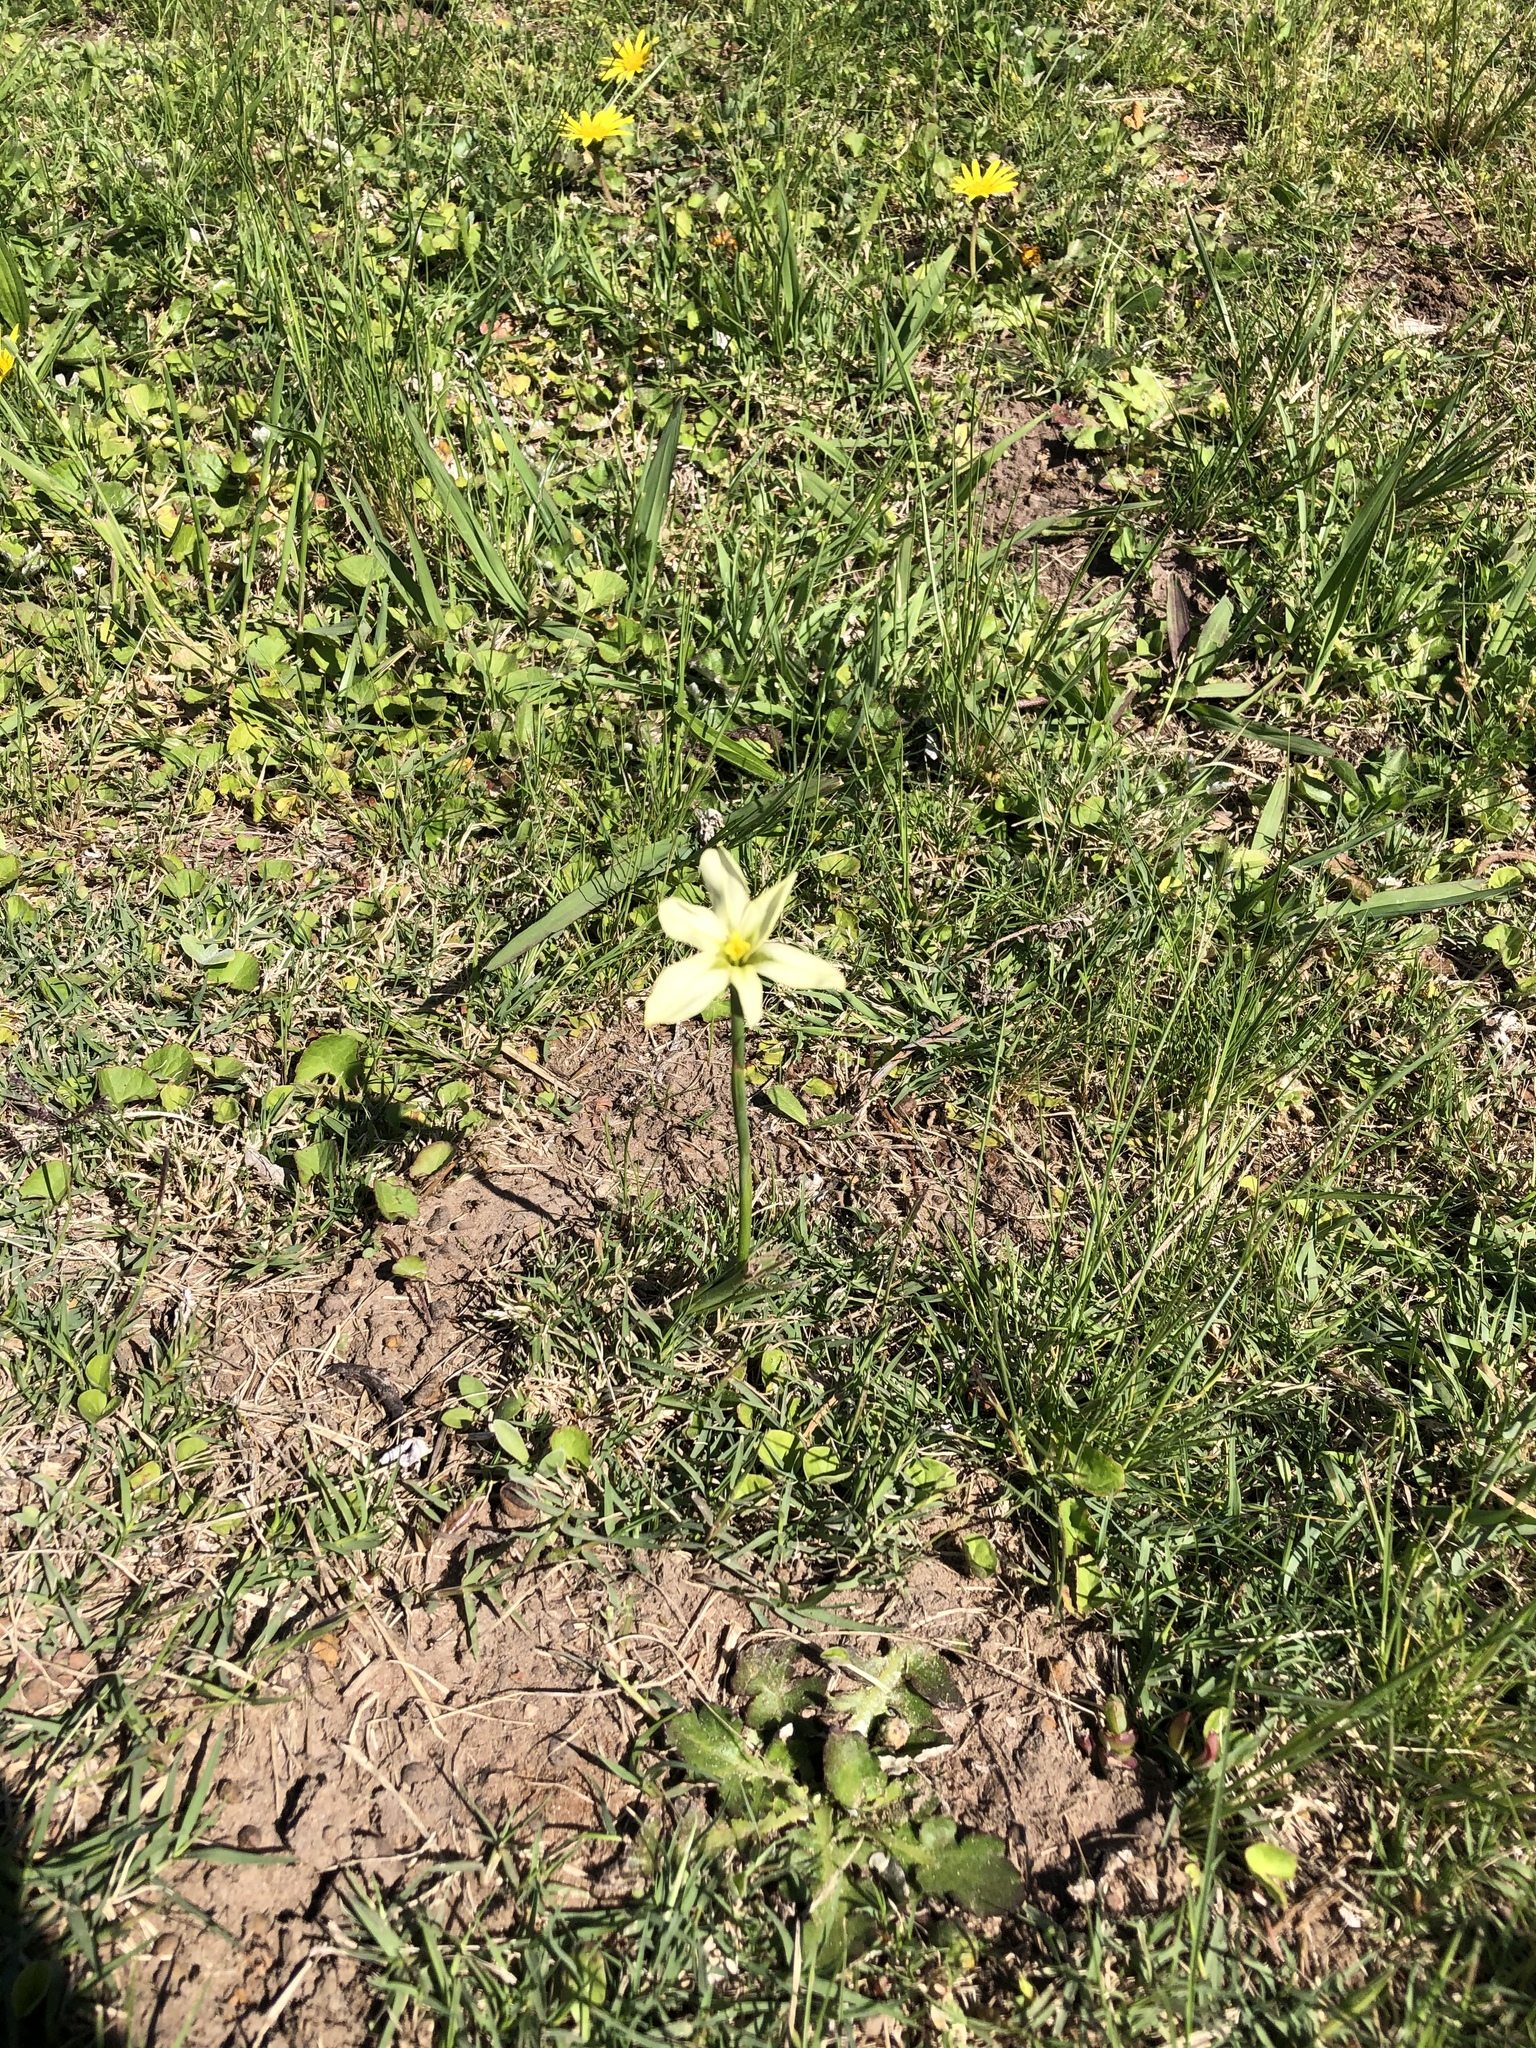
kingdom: Plantae
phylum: Tracheophyta
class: Liliopsida
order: Asparagales
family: Iridaceae
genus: Moraea
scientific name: Moraea bulbillifera
